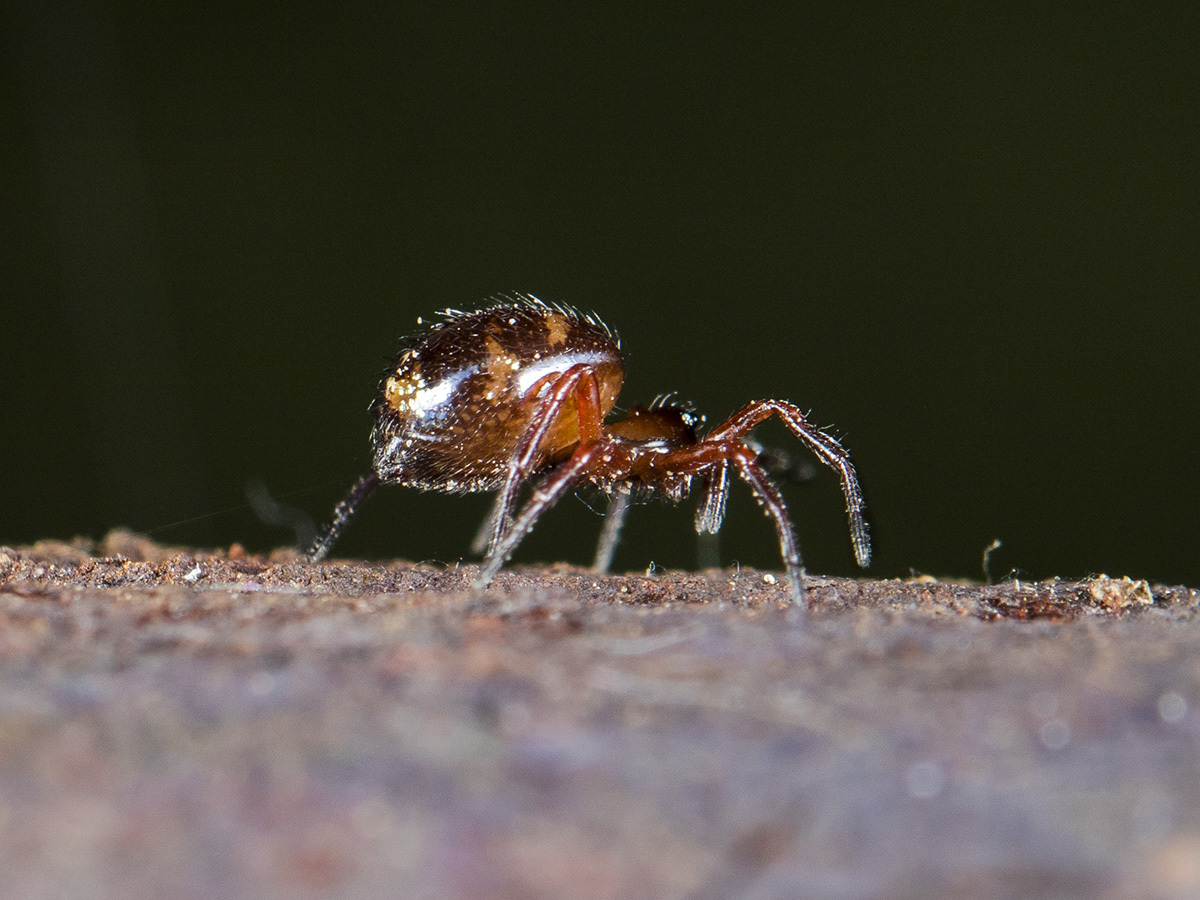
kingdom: Animalia
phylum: Arthropoda
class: Arachnida
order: Araneae
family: Theridiidae
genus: Euryopis
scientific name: Euryopis flavomaculata
